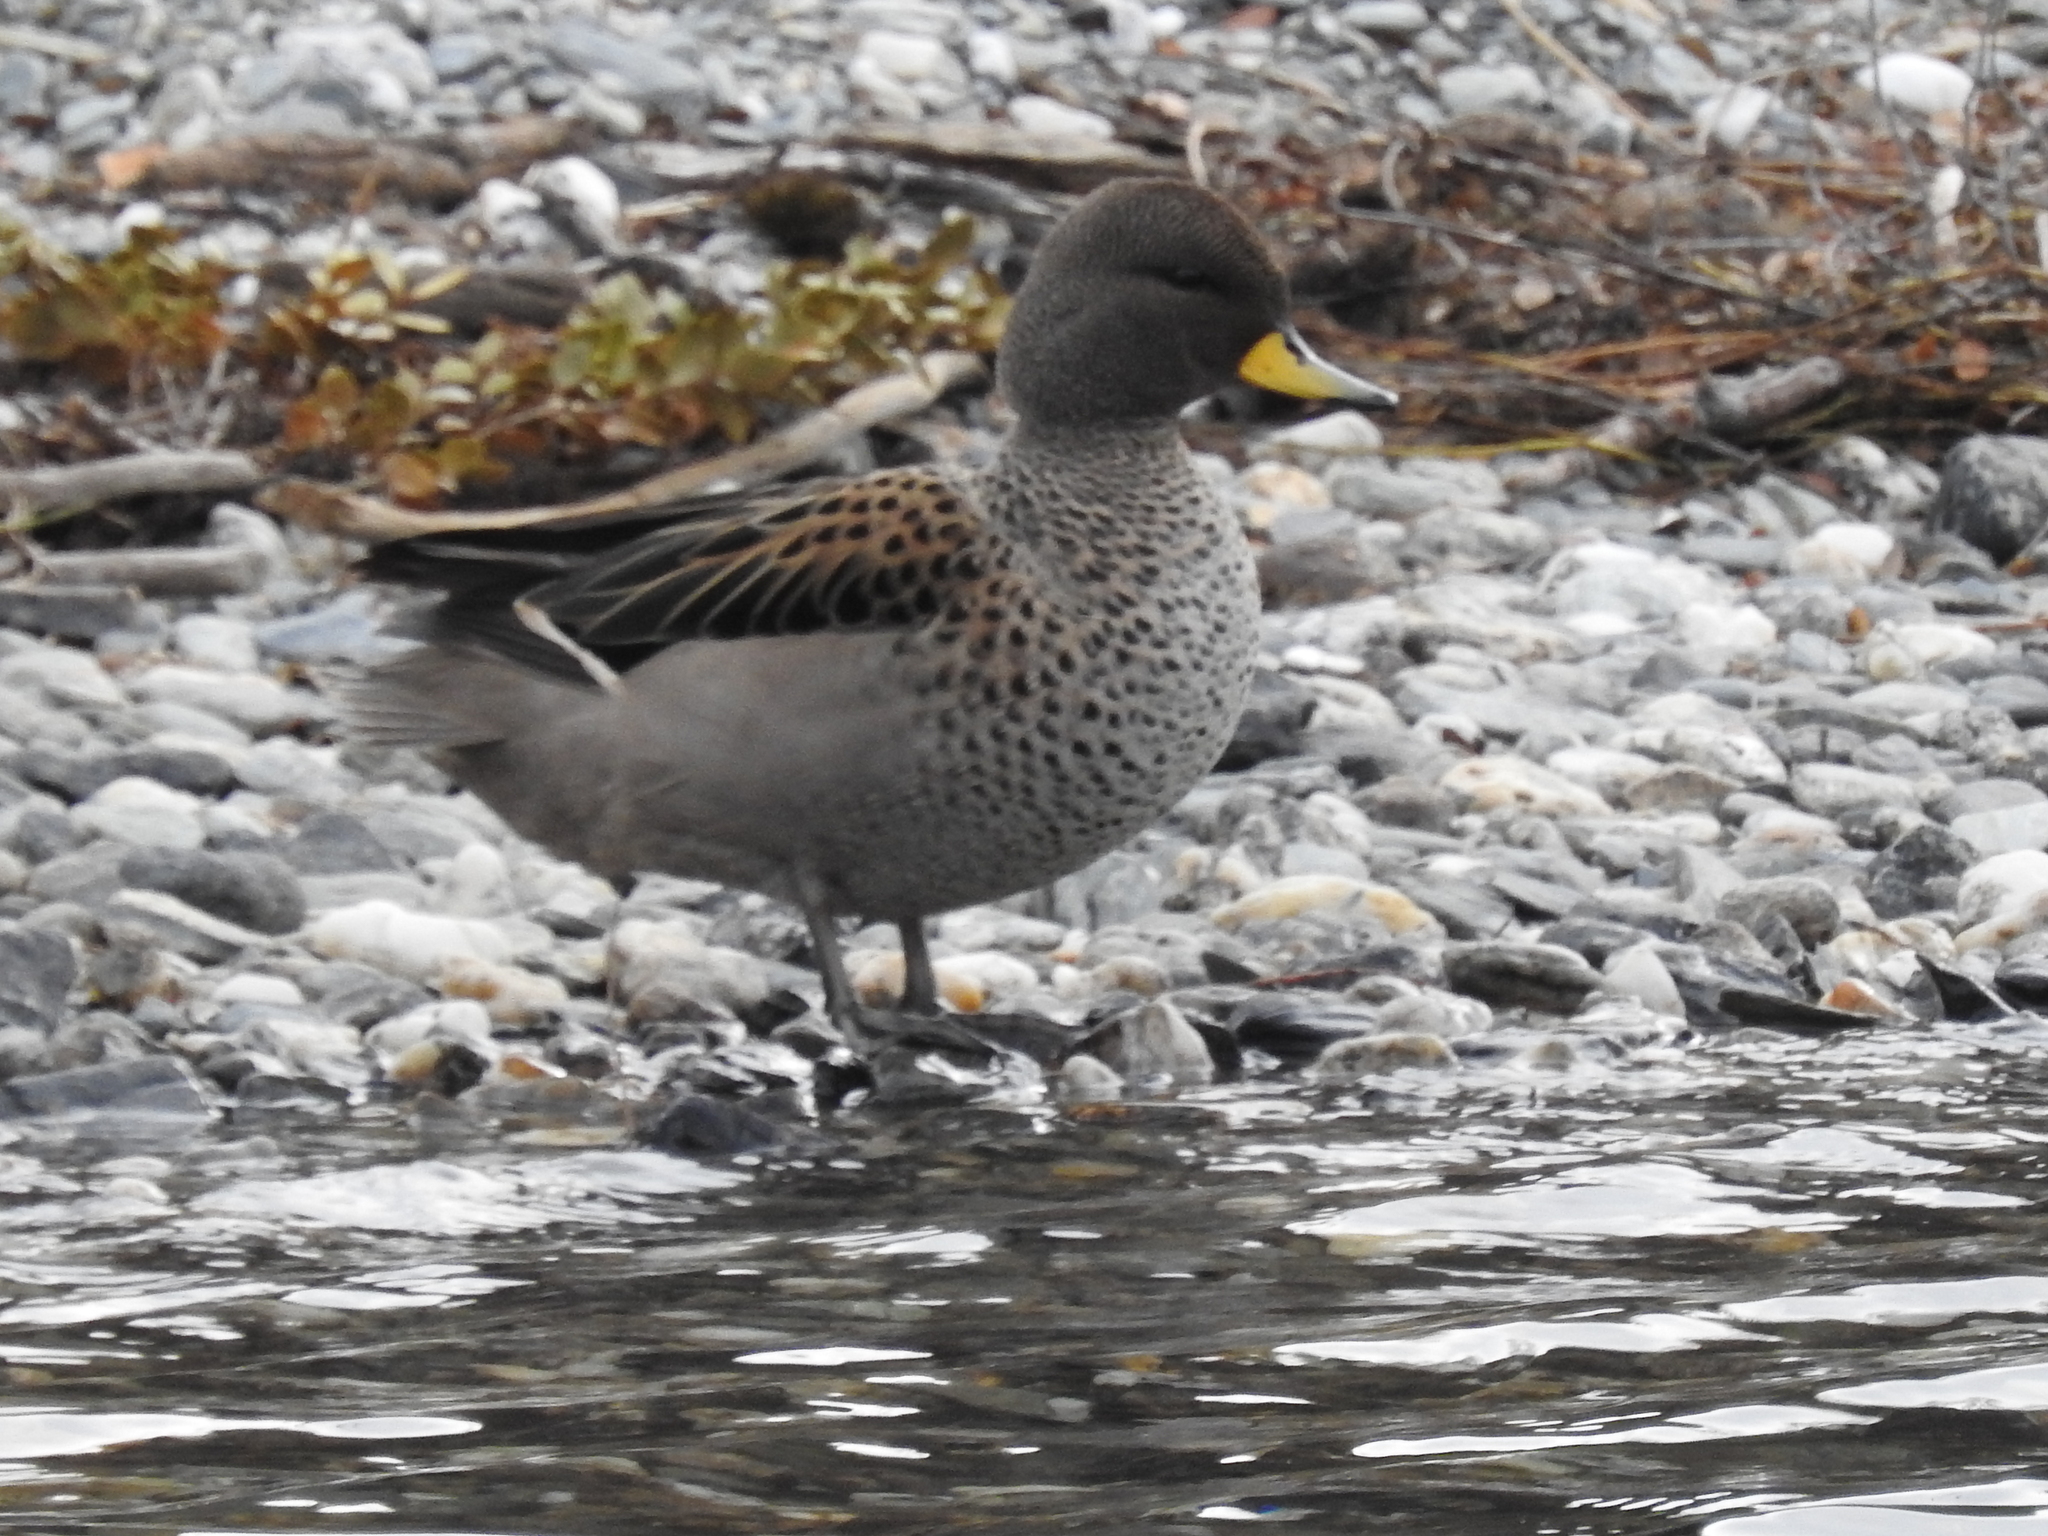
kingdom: Animalia
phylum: Chordata
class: Aves
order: Anseriformes
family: Anatidae
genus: Anas
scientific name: Anas flavirostris
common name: Yellow-billed teal
